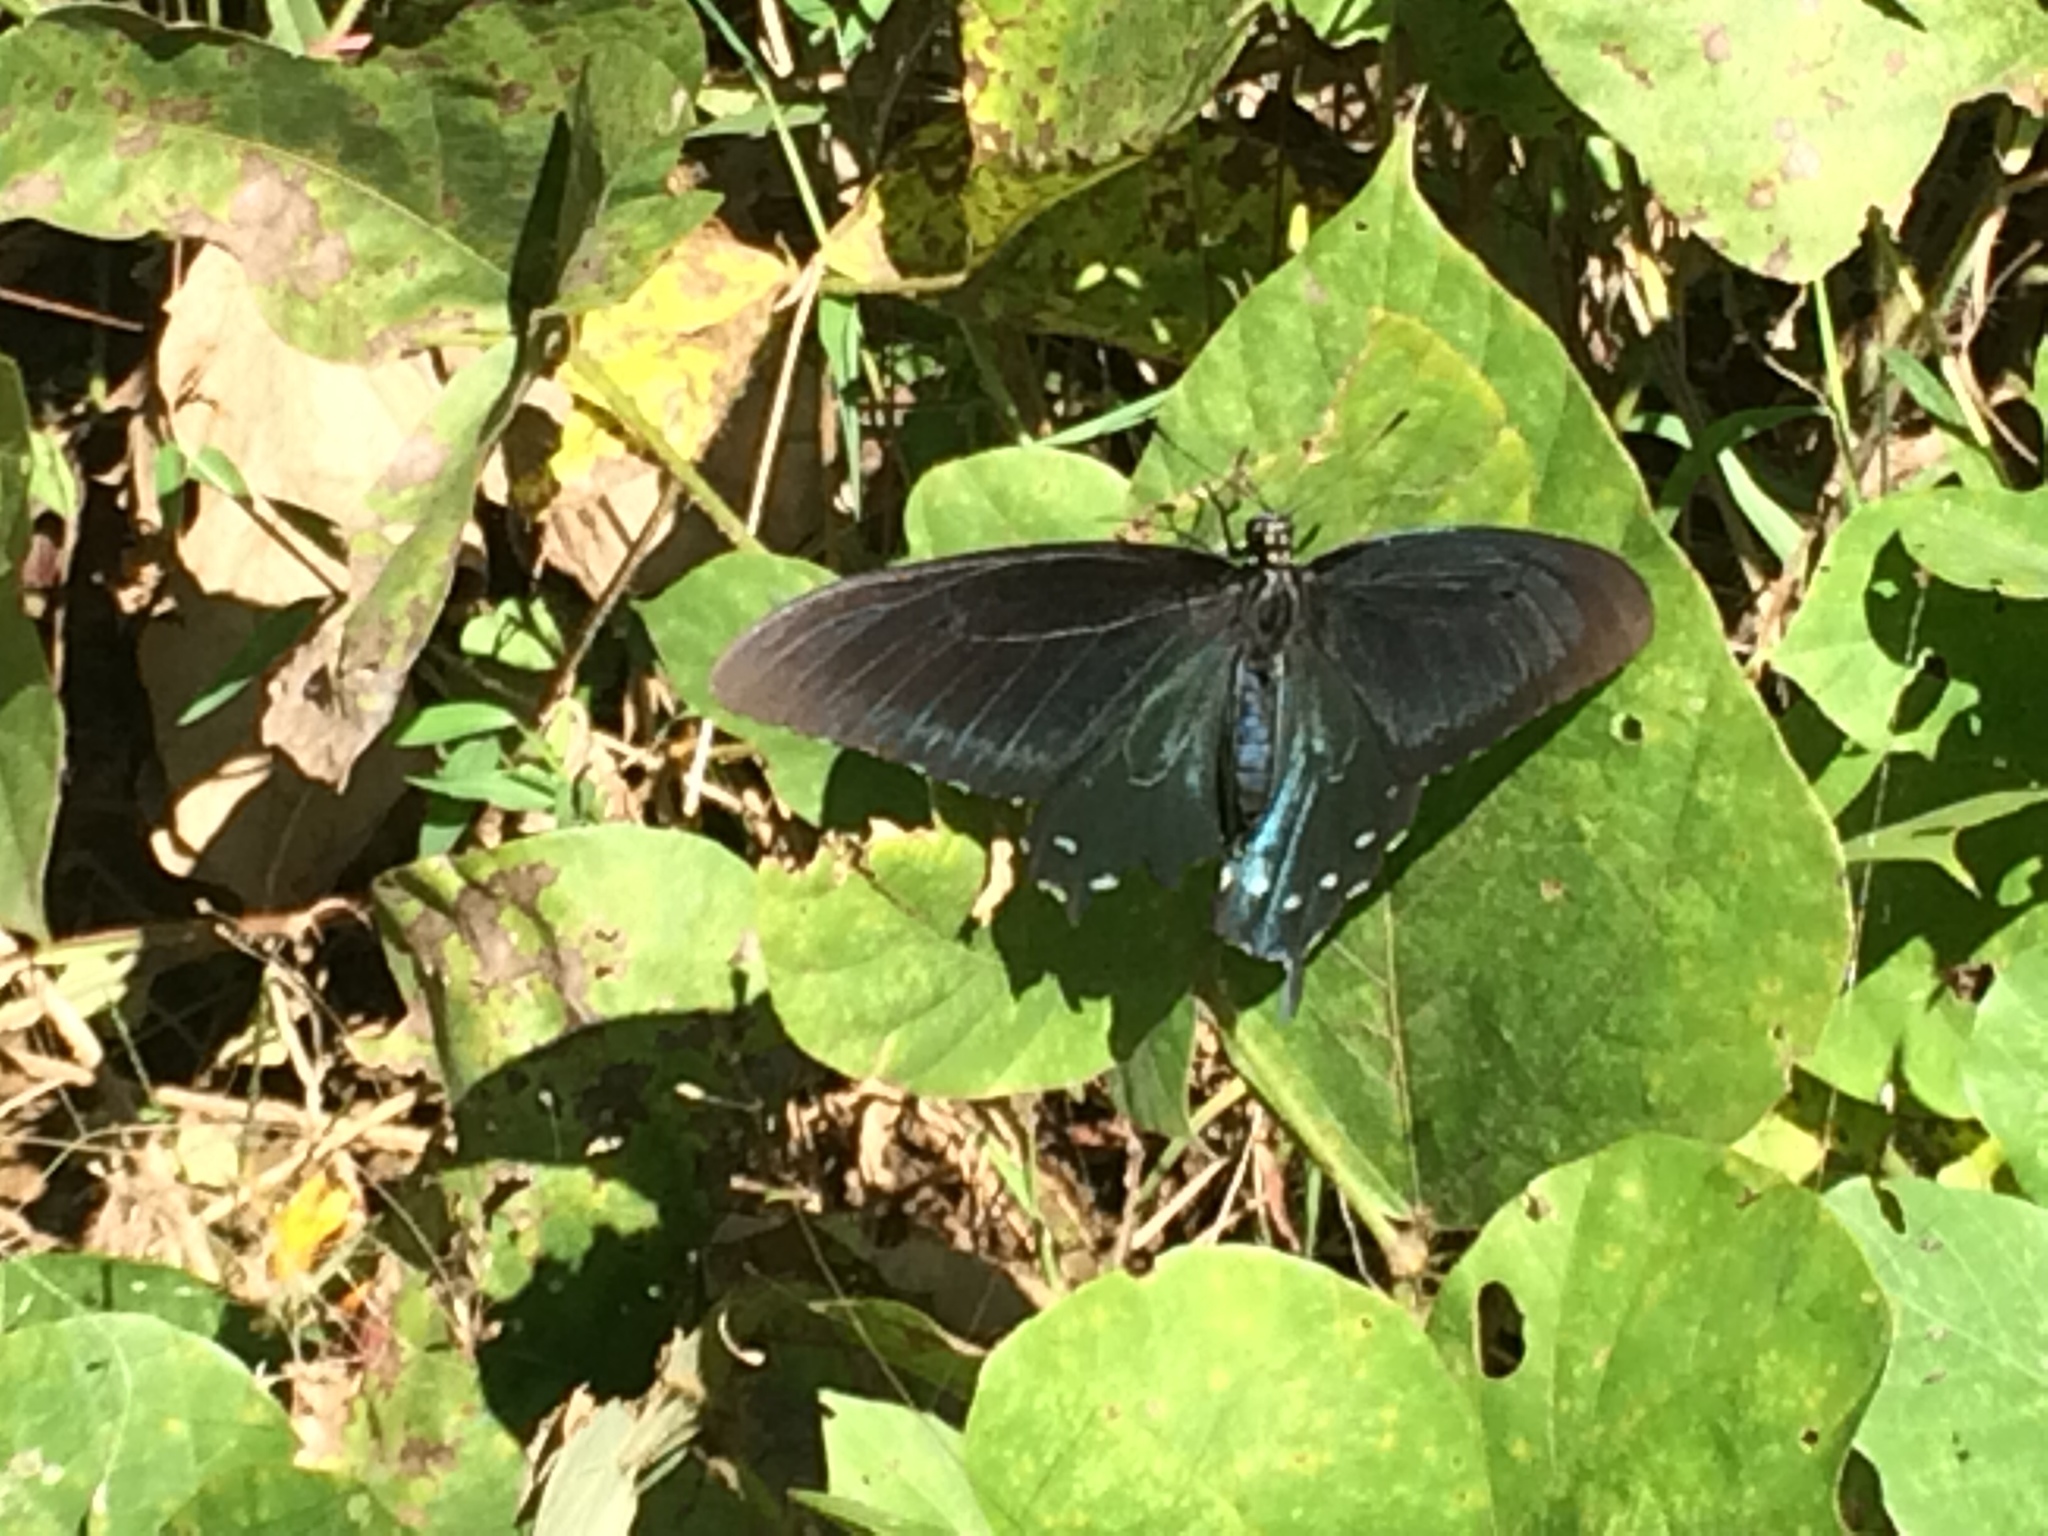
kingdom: Animalia
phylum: Arthropoda
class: Insecta
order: Lepidoptera
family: Papilionidae
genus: Battus
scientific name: Battus philenor
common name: Pipevine swallowtail
